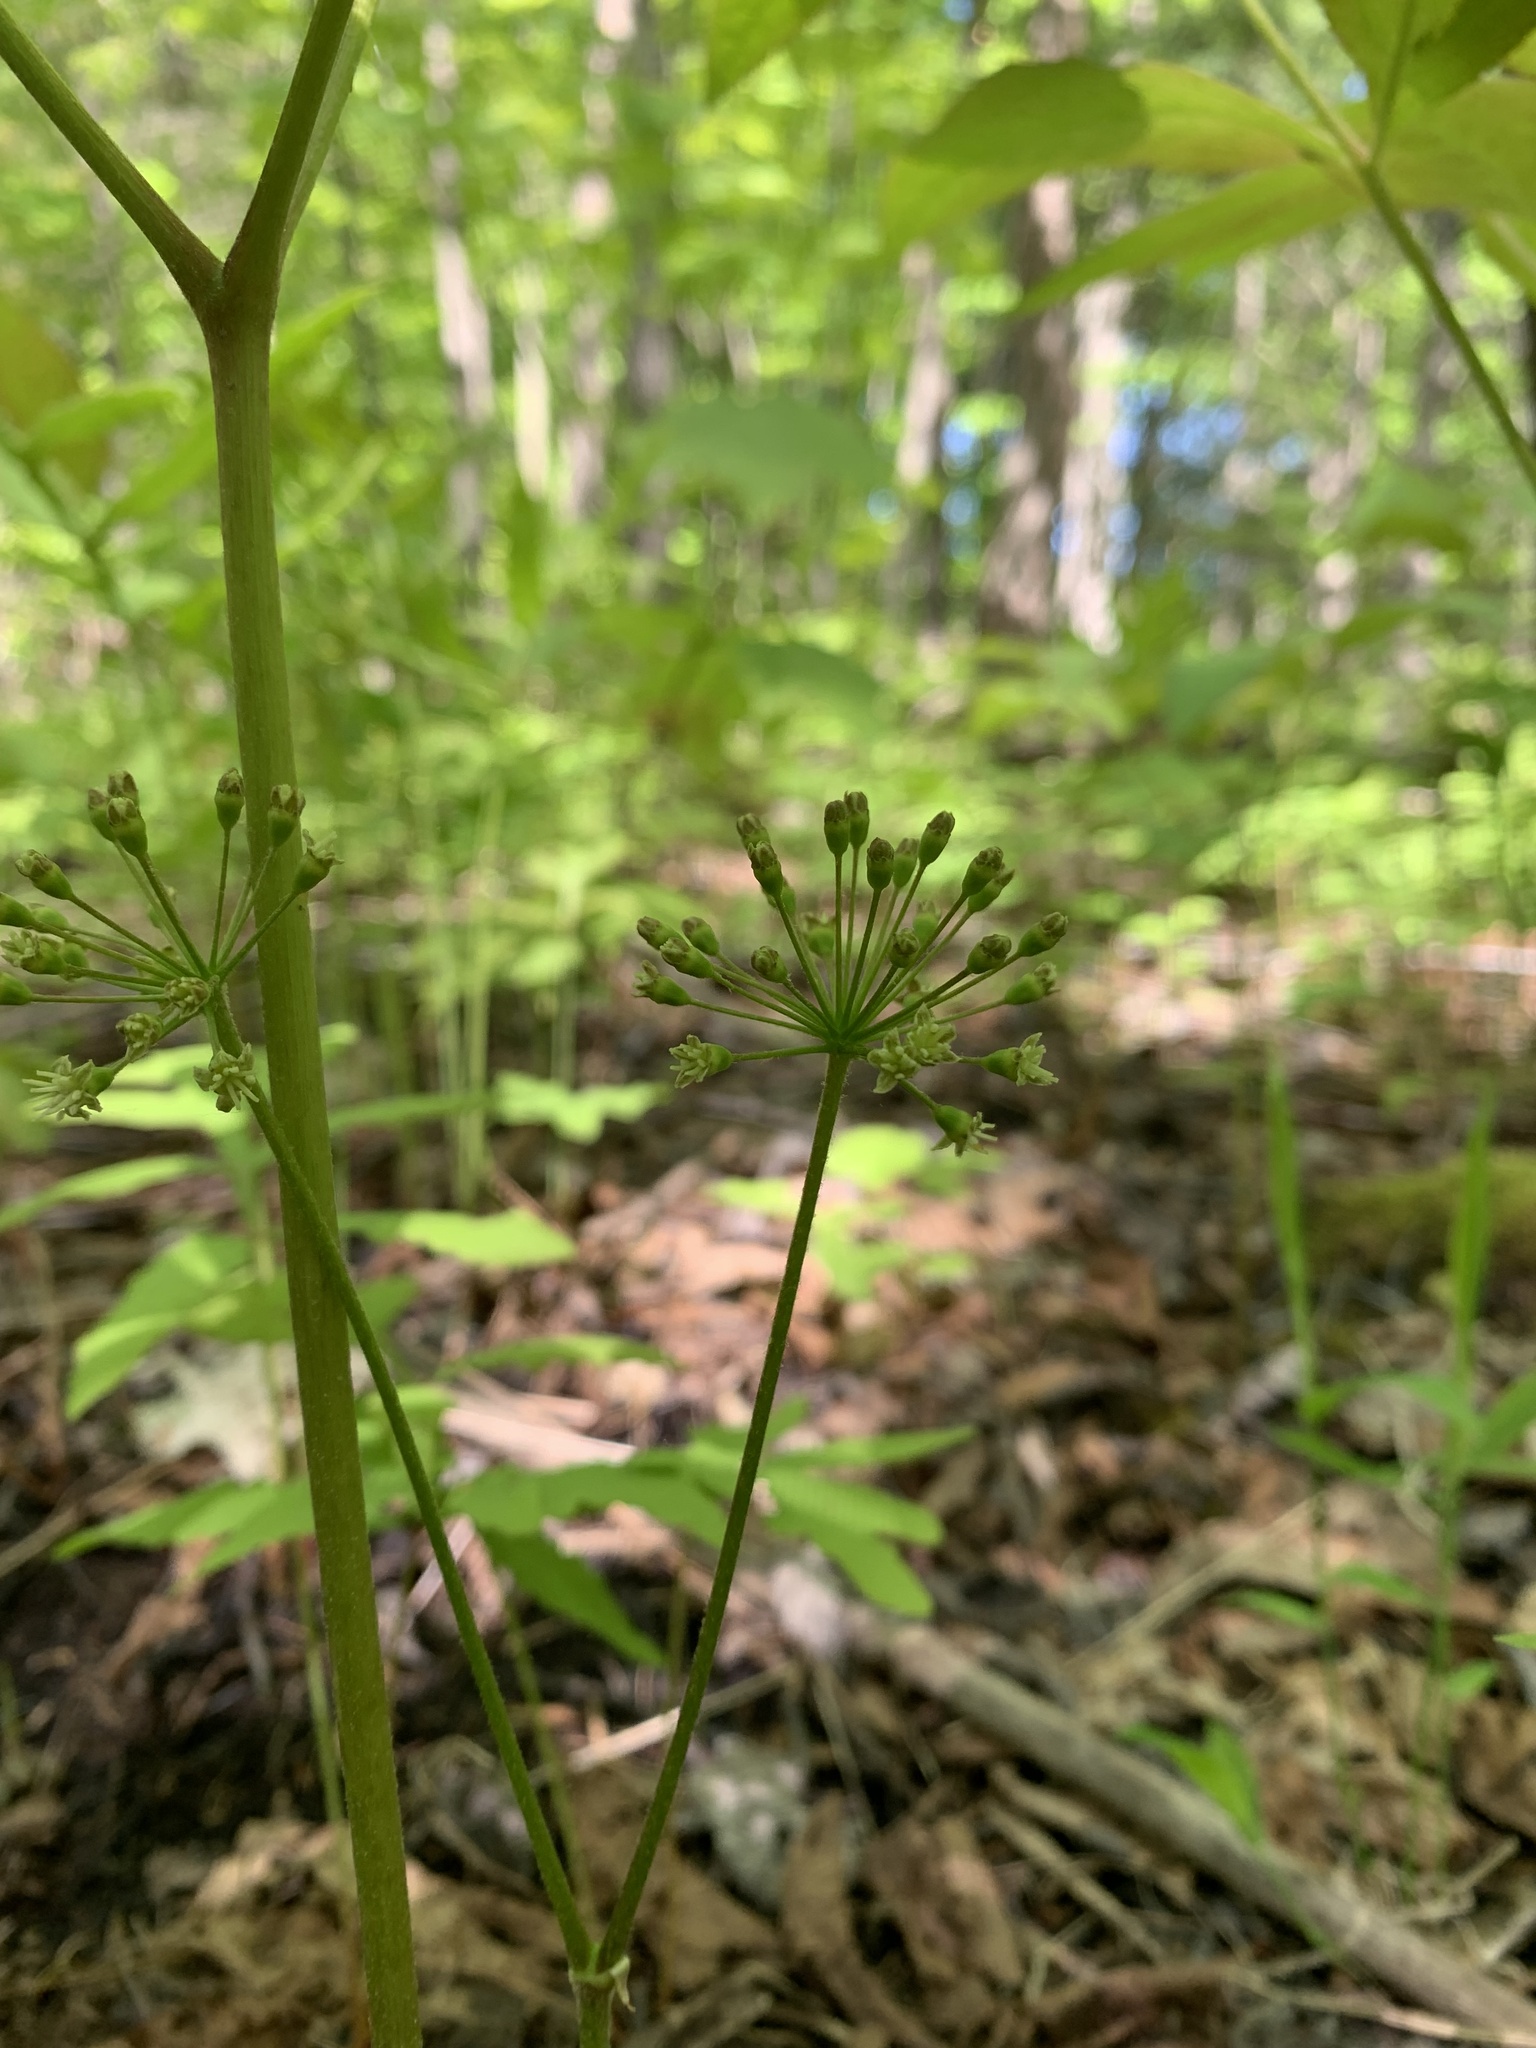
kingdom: Plantae
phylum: Tracheophyta
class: Magnoliopsida
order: Apiales
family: Araliaceae
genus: Aralia
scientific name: Aralia nudicaulis
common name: Wild sarsaparilla
